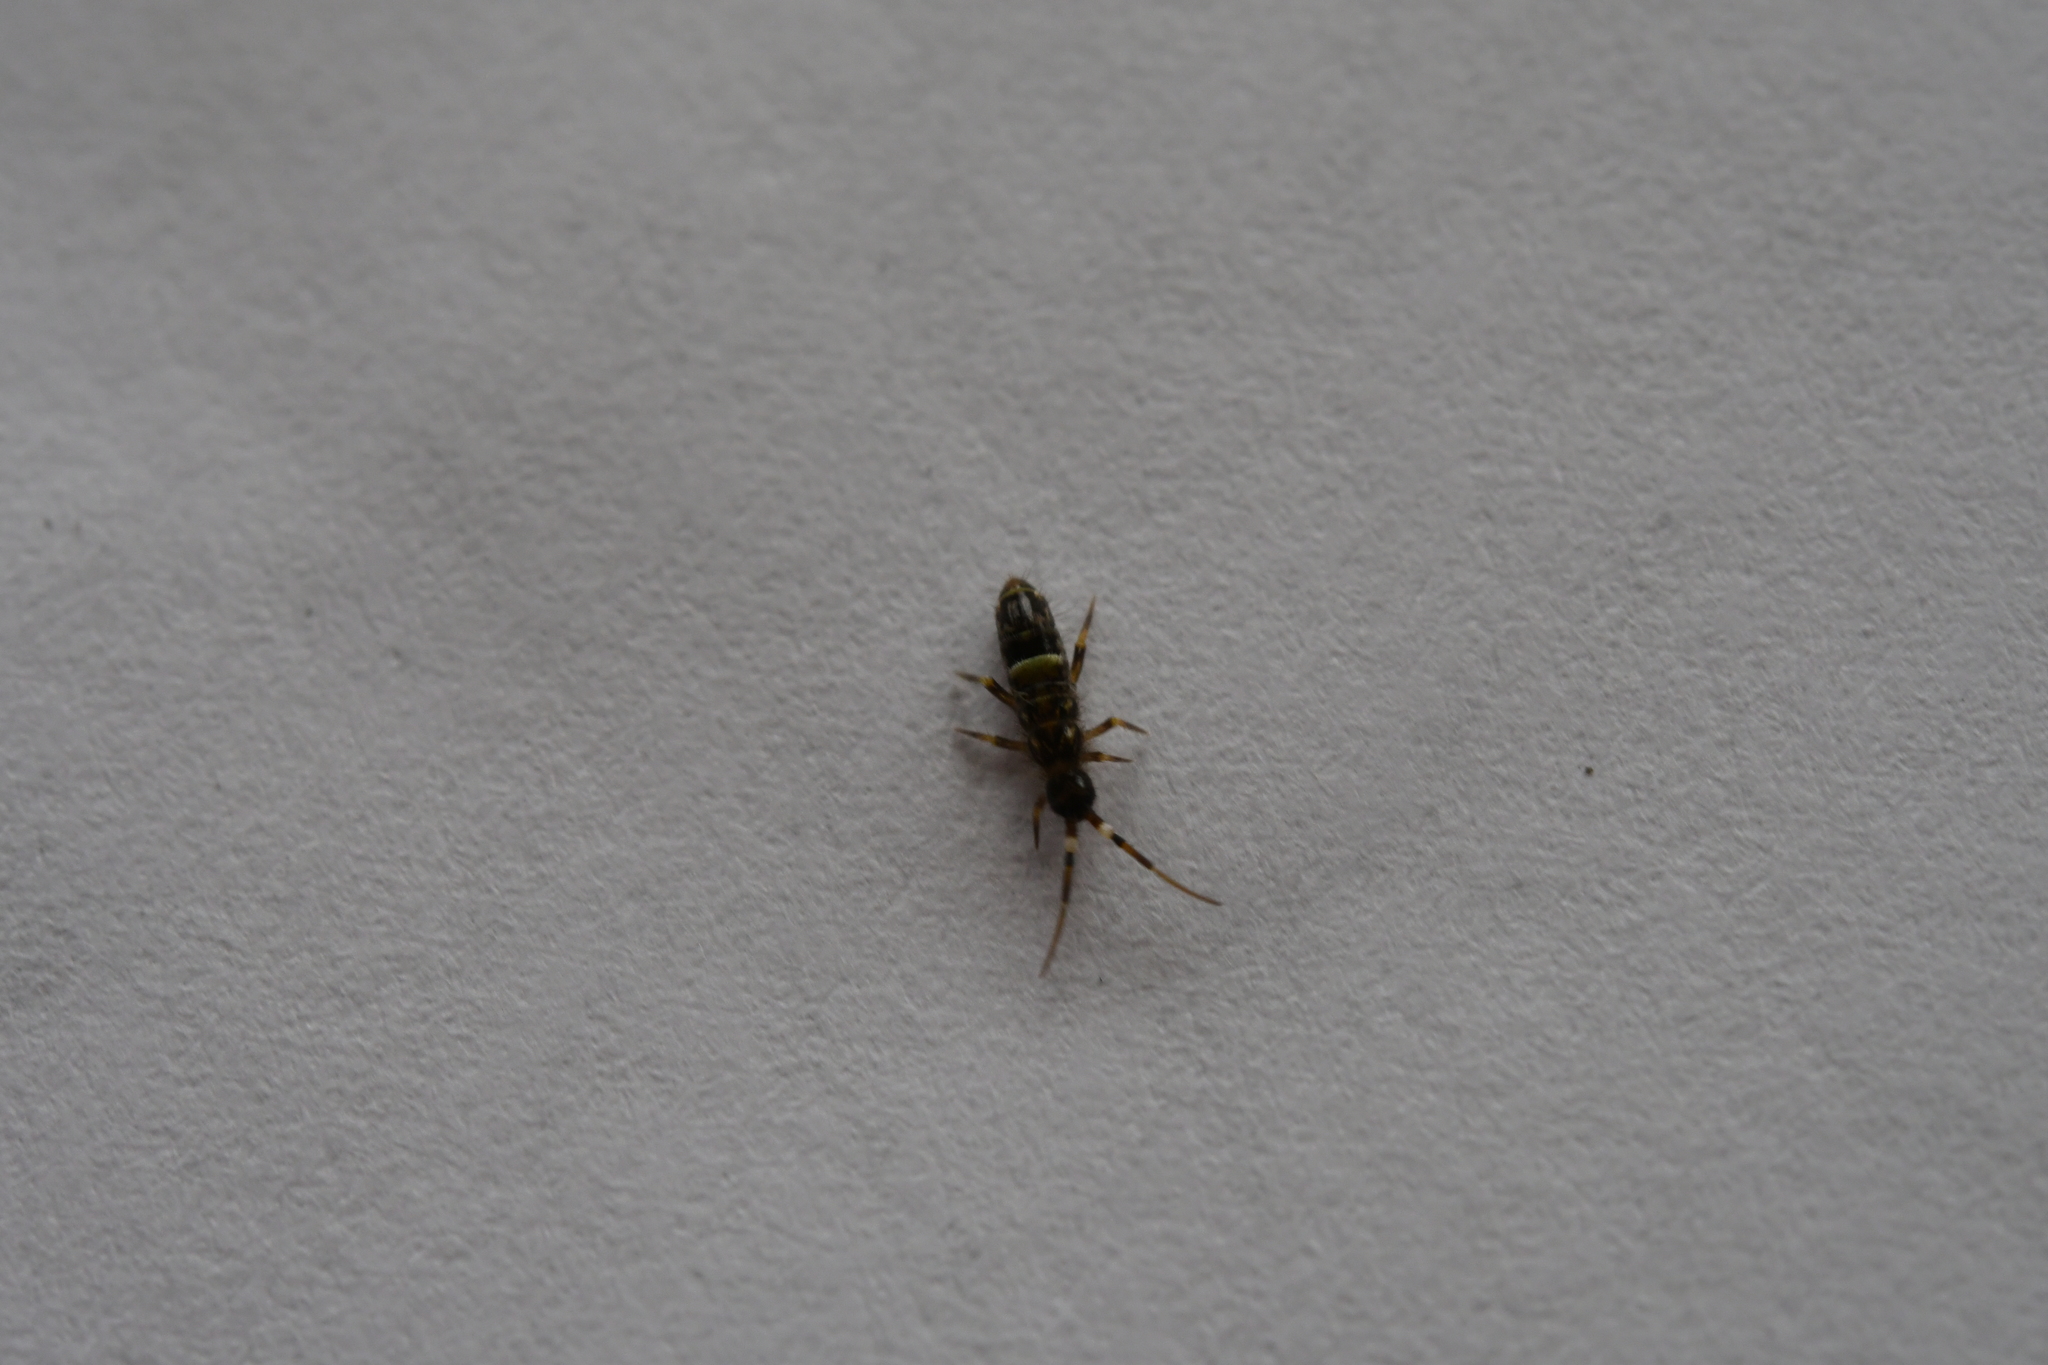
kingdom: Animalia
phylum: Arthropoda
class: Collembola
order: Entomobryomorpha
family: Orchesellidae
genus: Orchesella
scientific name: Orchesella cincta
